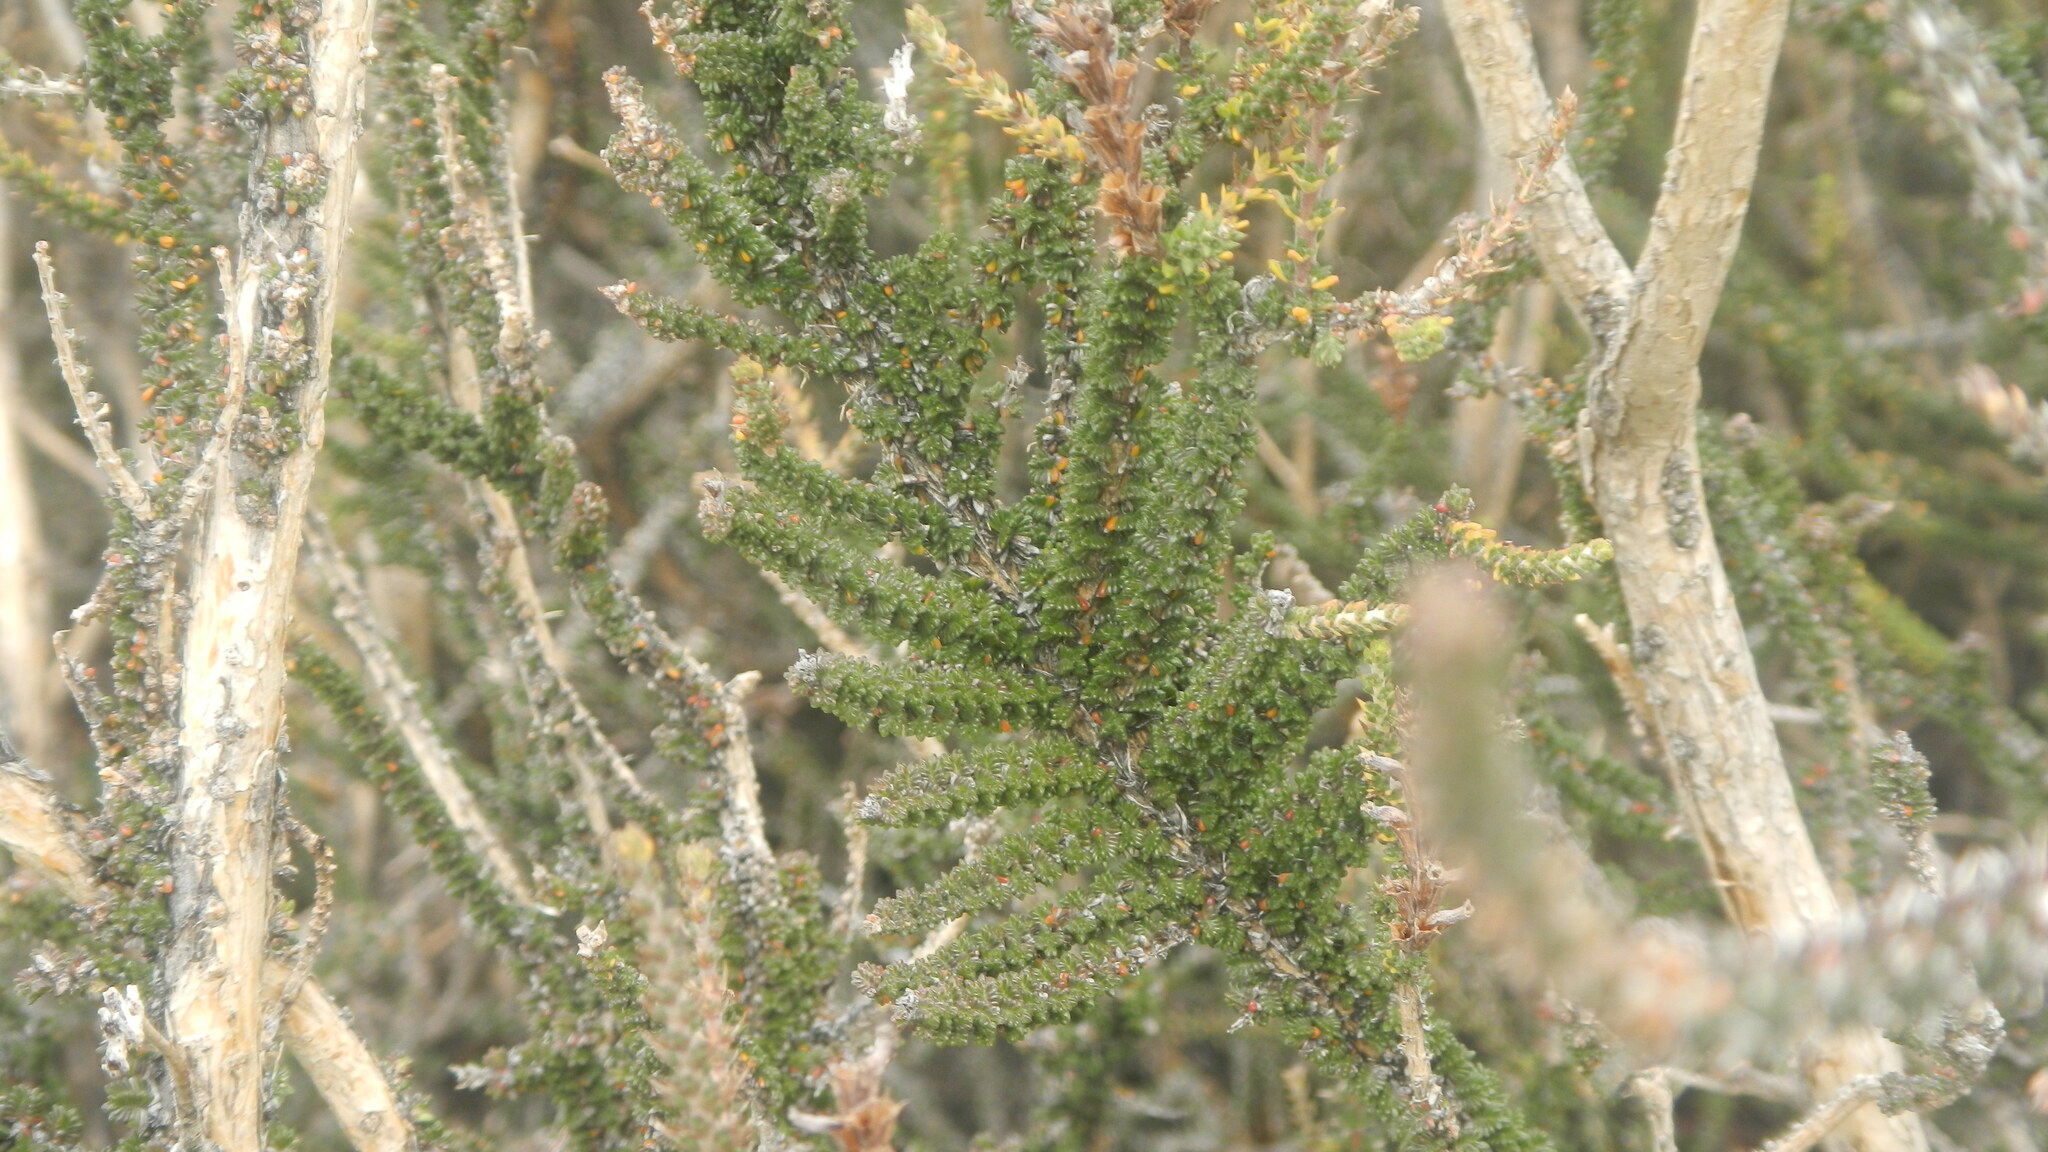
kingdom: Plantae
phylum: Tracheophyta
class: Magnoliopsida
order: Lamiales
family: Verbenaceae
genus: Mulguraea
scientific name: Mulguraea tridens
